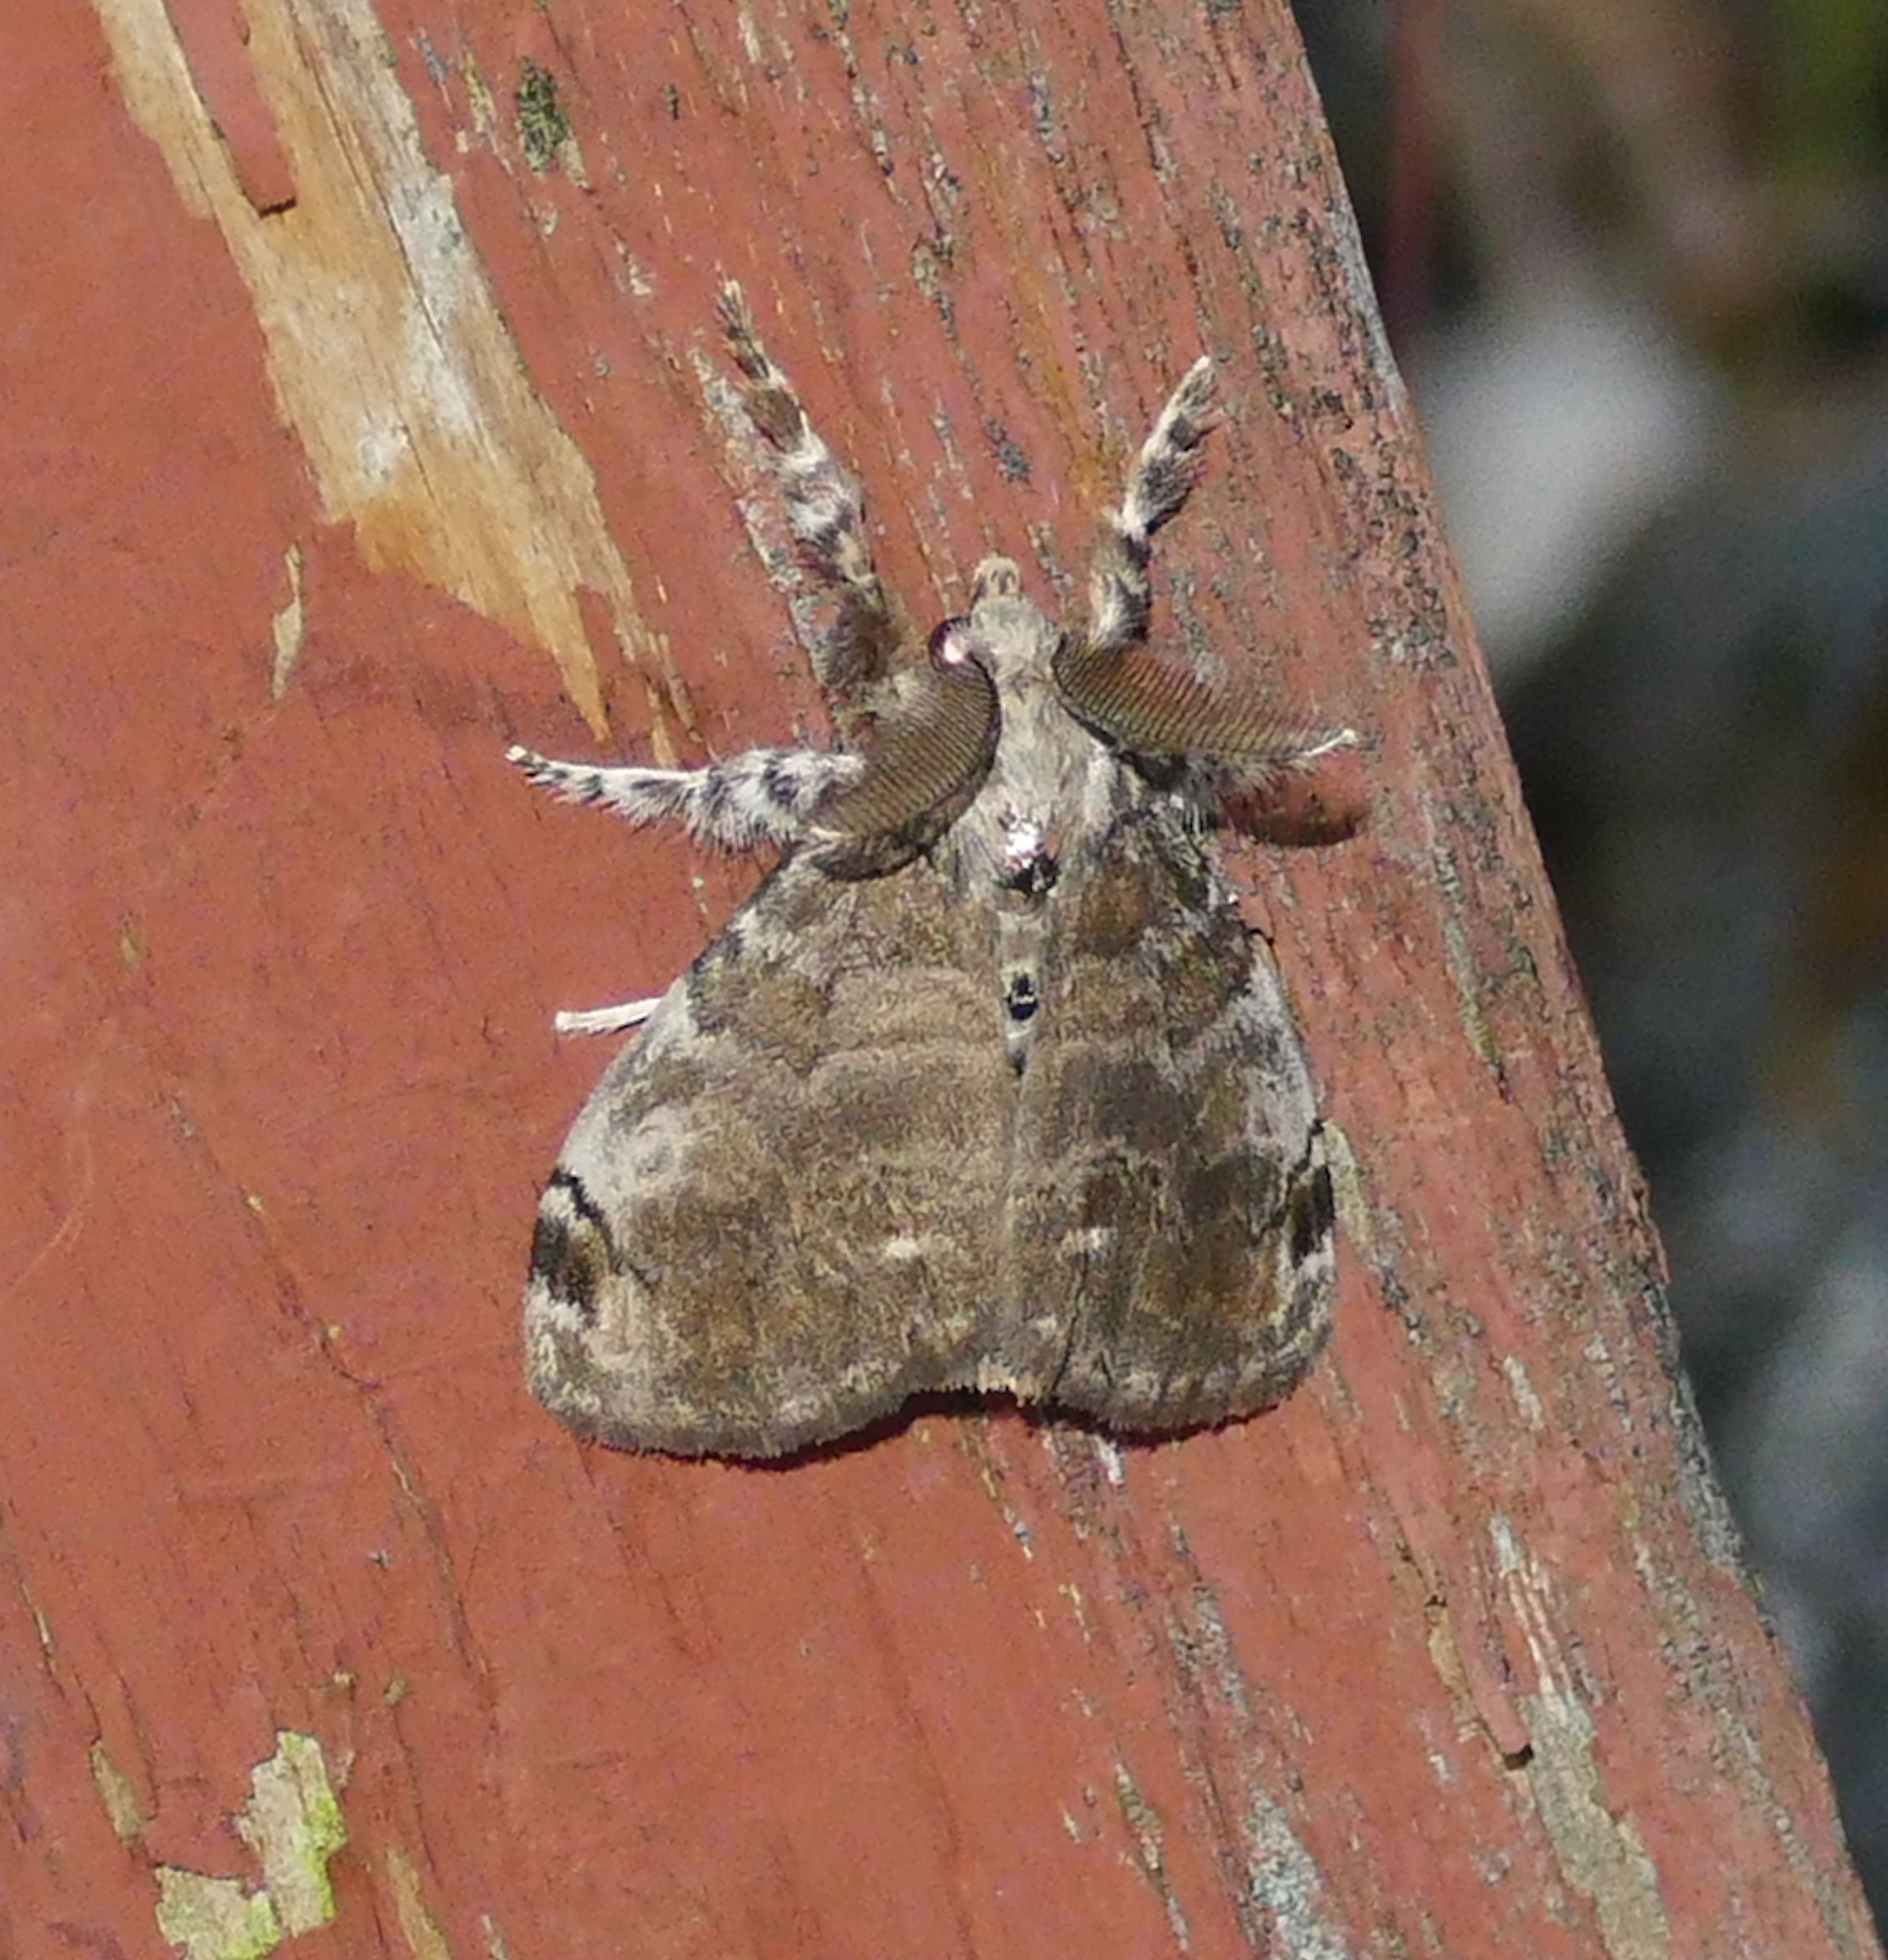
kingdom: Animalia
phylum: Arthropoda
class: Insecta
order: Lepidoptera
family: Erebidae
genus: Orgyia
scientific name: Orgyia leucostigma
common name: White-marked tussock moth
